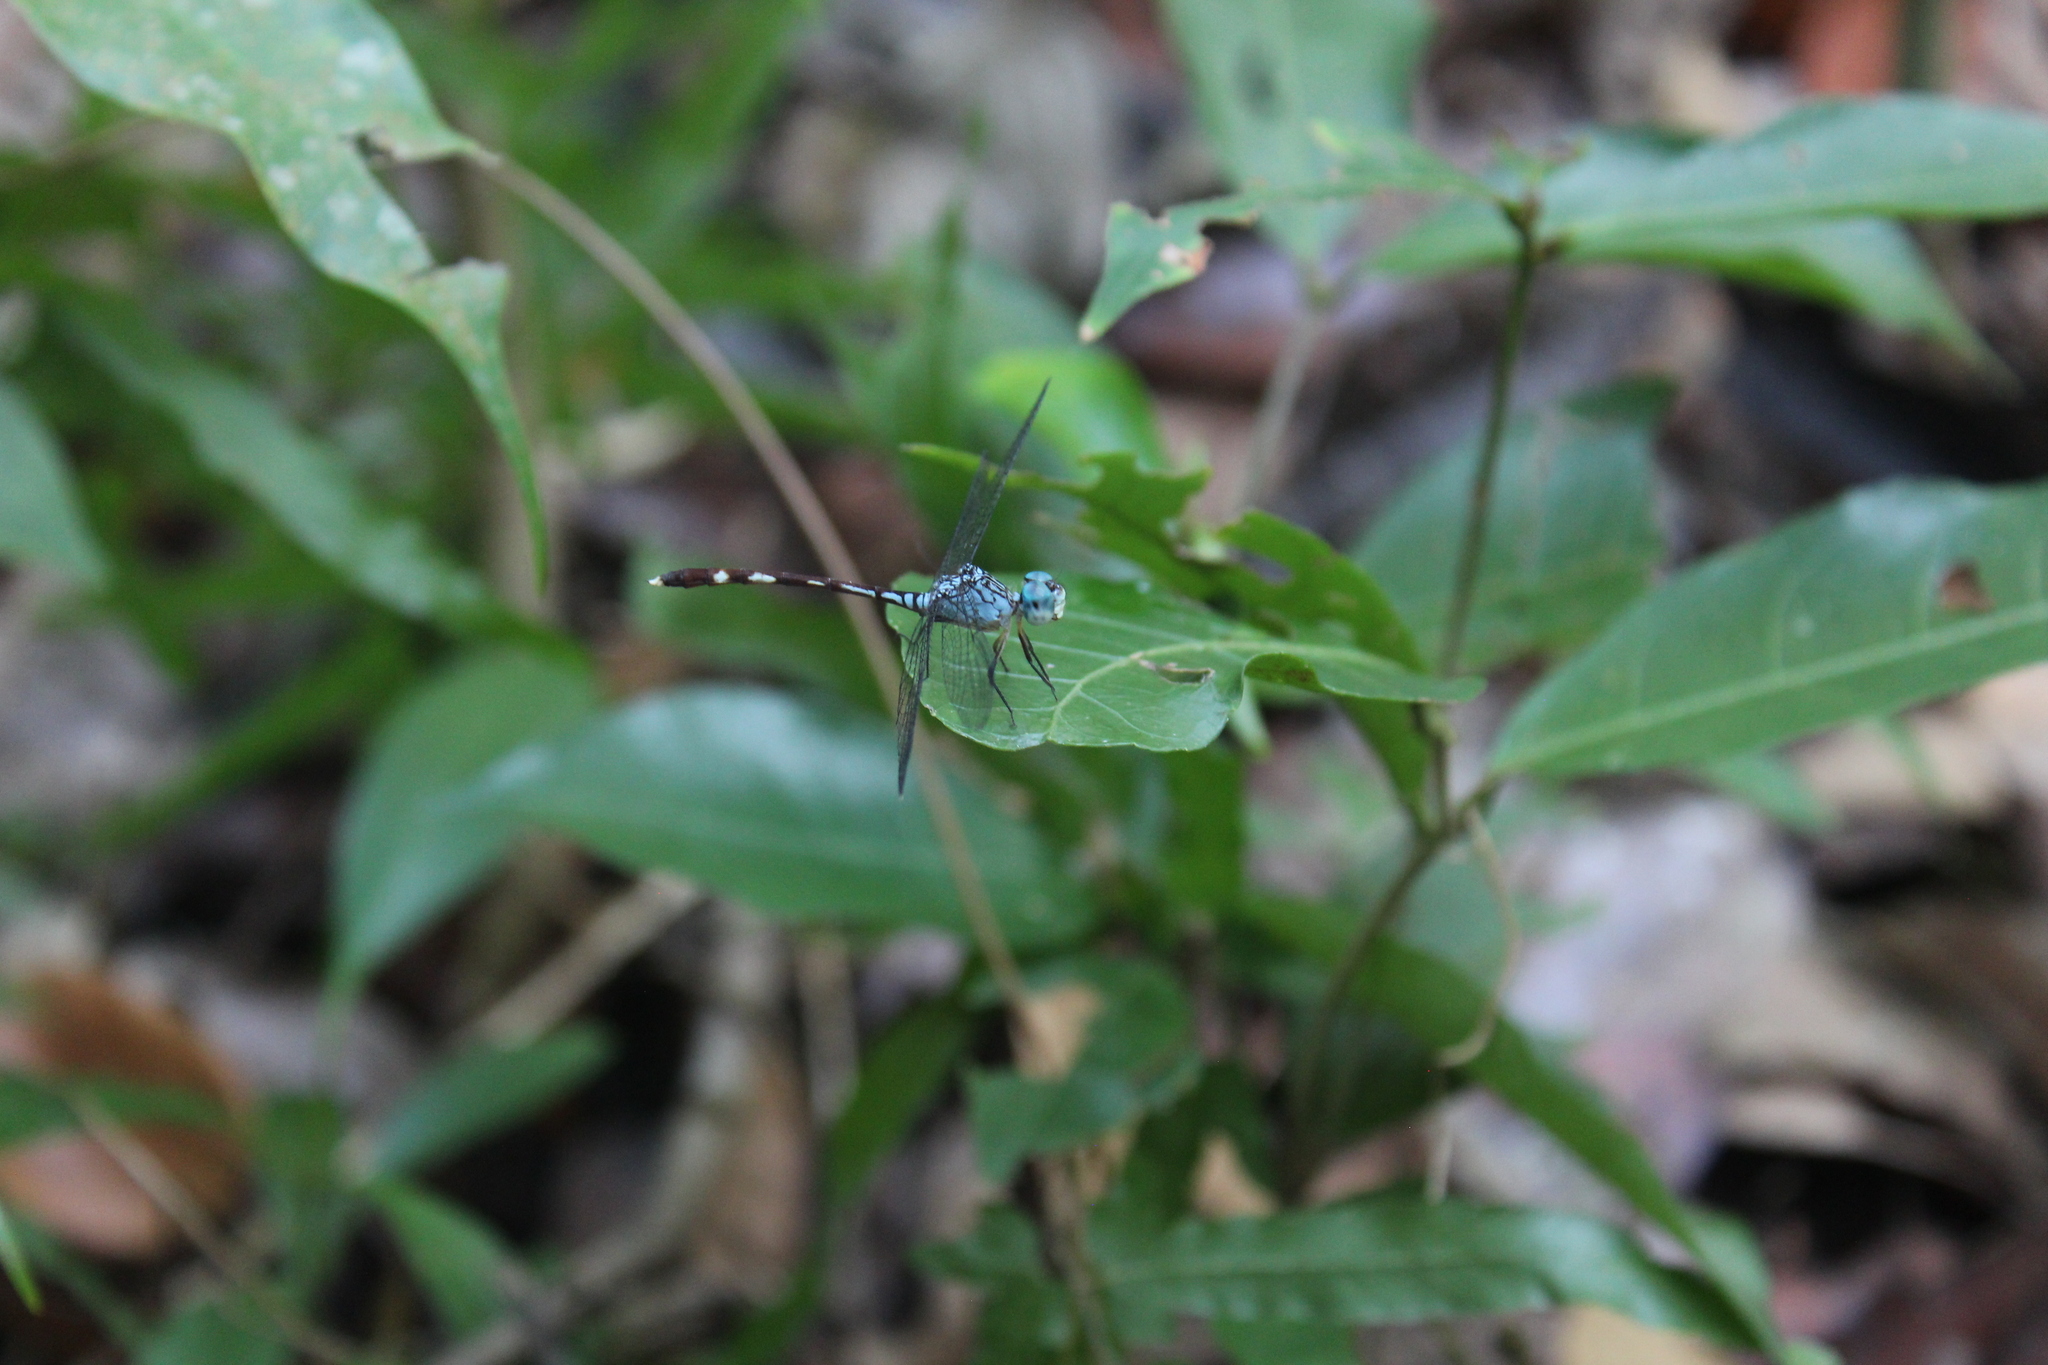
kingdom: Animalia
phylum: Arthropoda
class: Insecta
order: Odonata
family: Libellulidae
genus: Anatya
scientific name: Anatya guttata
